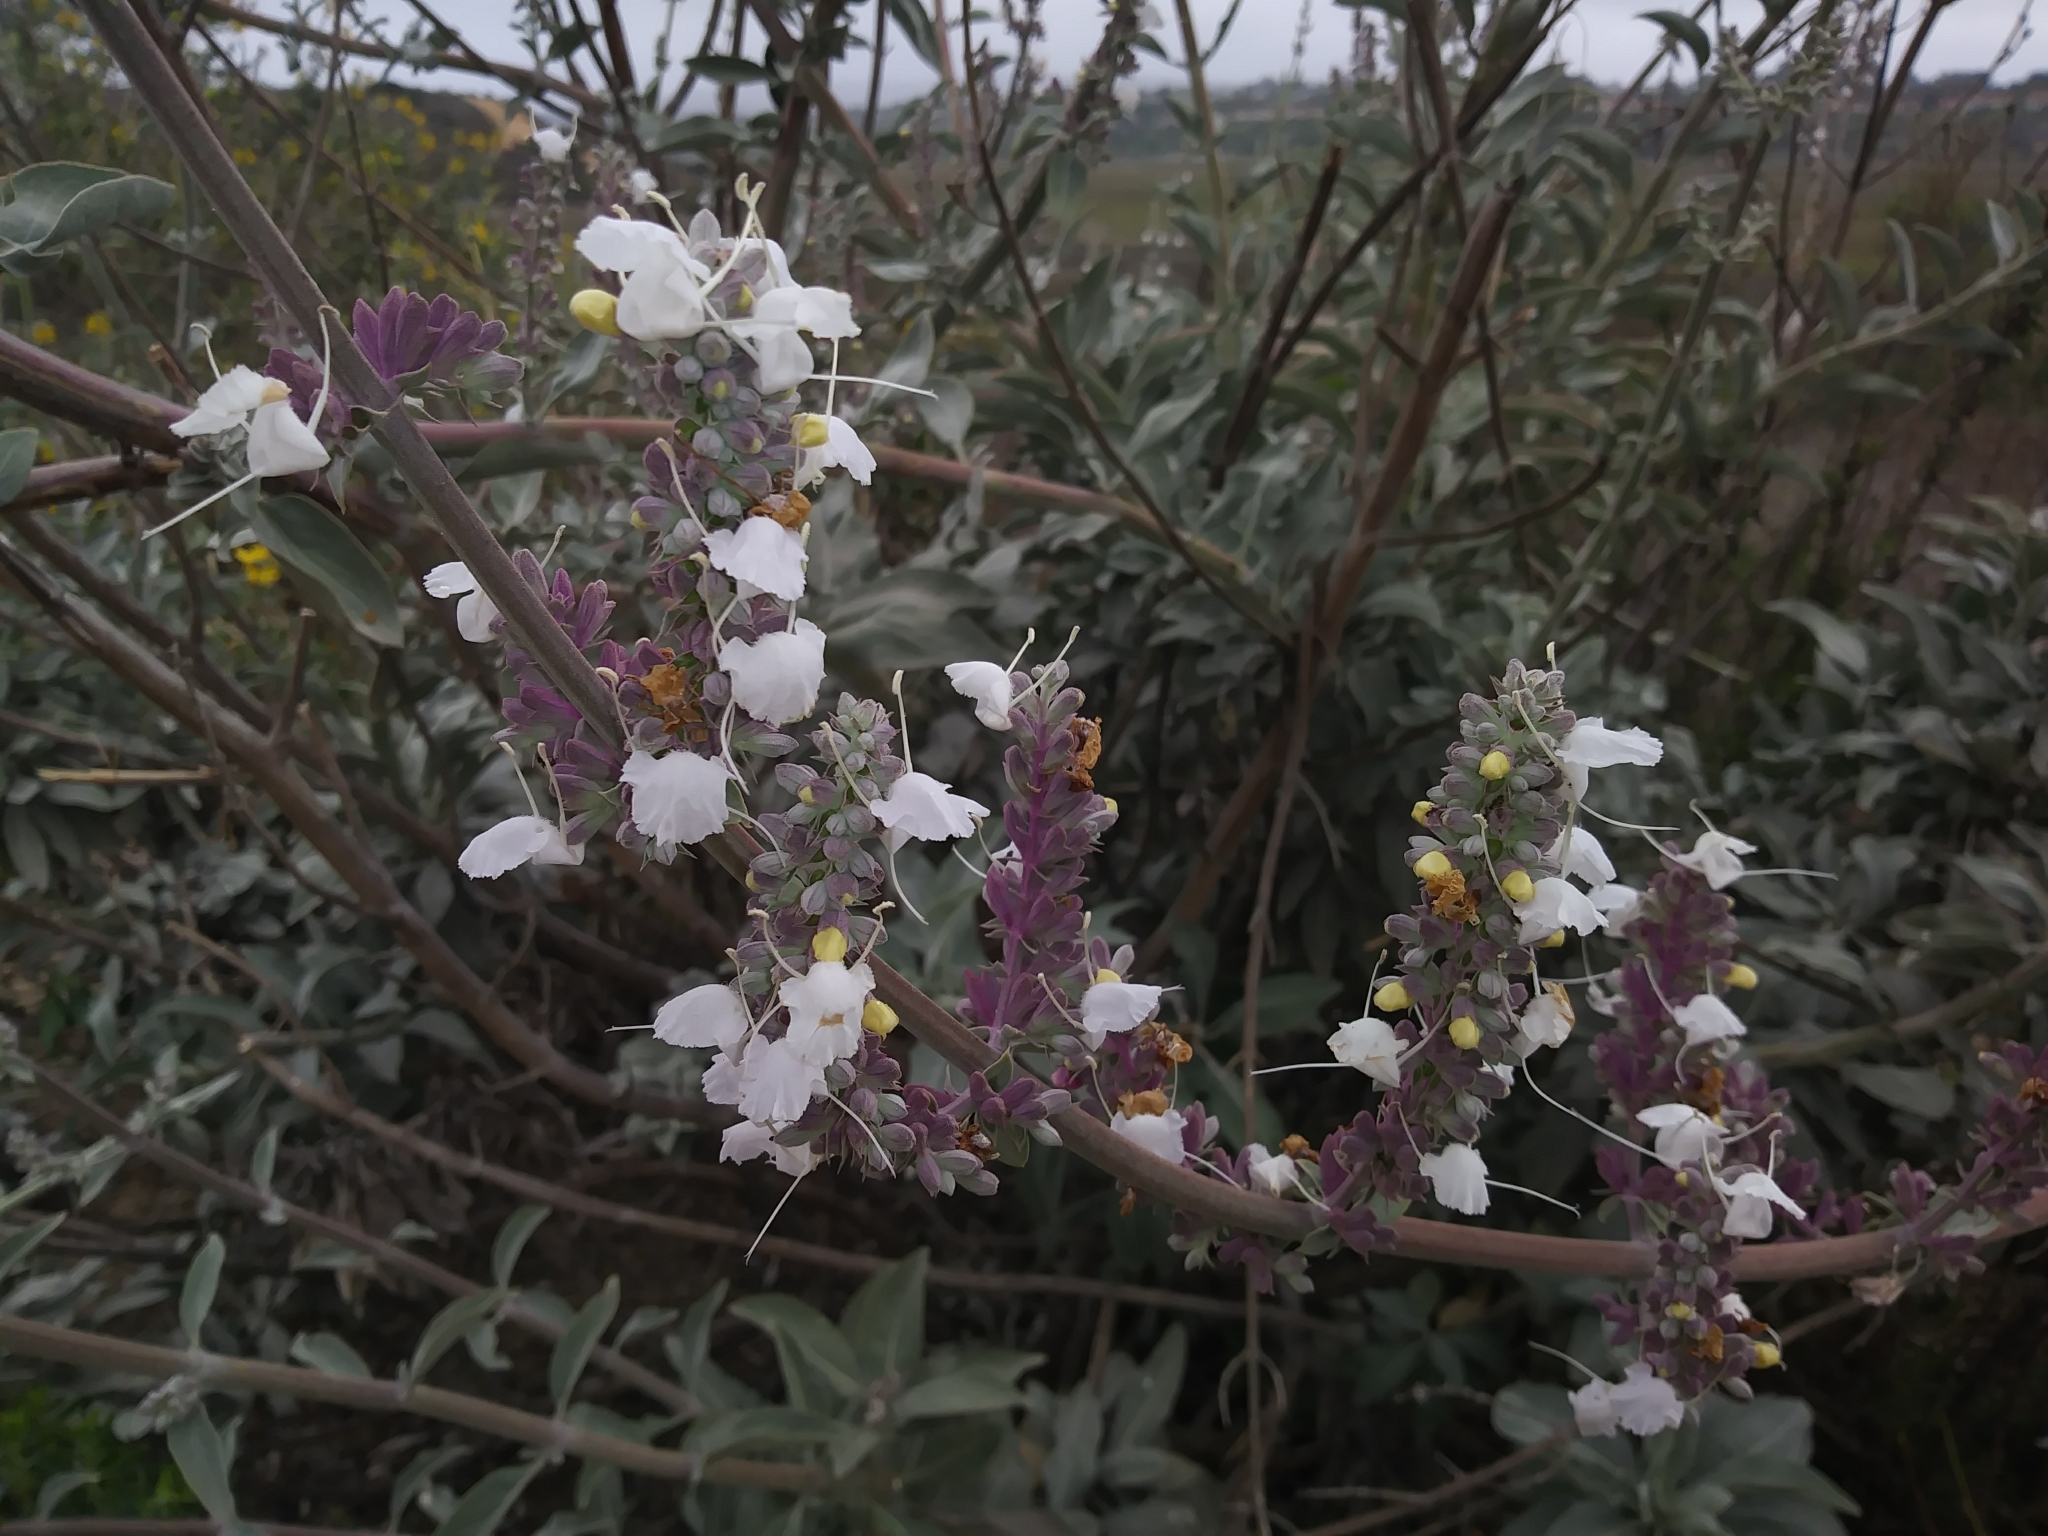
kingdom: Plantae
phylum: Tracheophyta
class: Magnoliopsida
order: Lamiales
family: Lamiaceae
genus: Salvia
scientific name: Salvia apiana
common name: White sage
